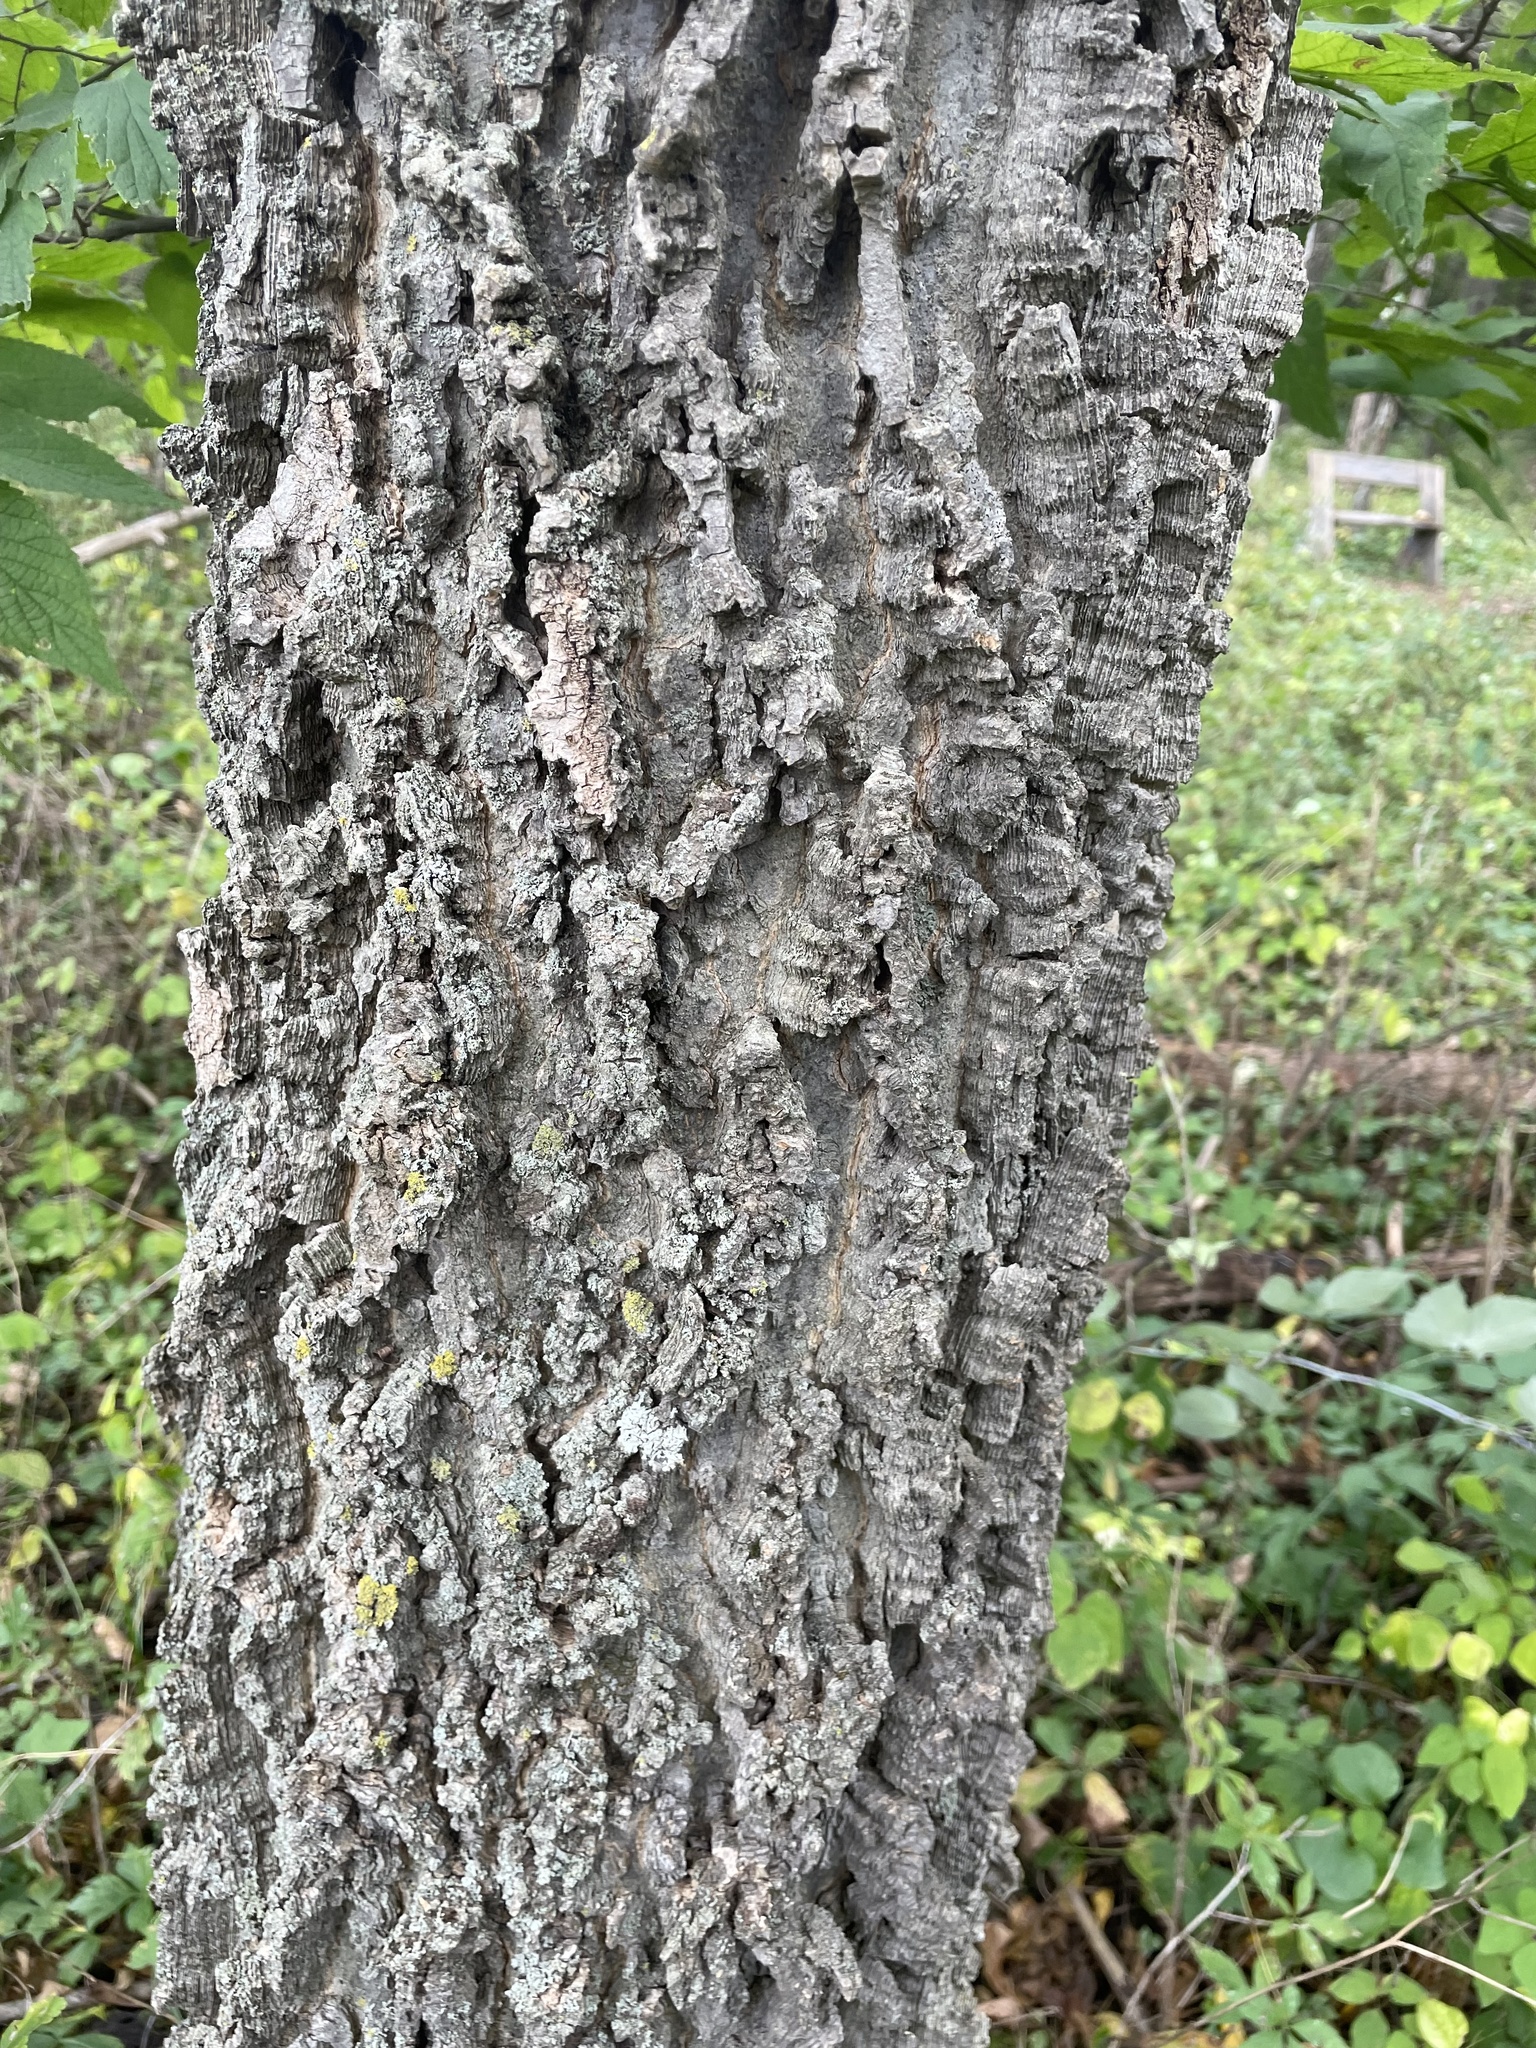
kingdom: Plantae
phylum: Tracheophyta
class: Magnoliopsida
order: Rosales
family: Cannabaceae
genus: Celtis
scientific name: Celtis occidentalis
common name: Common hackberry
